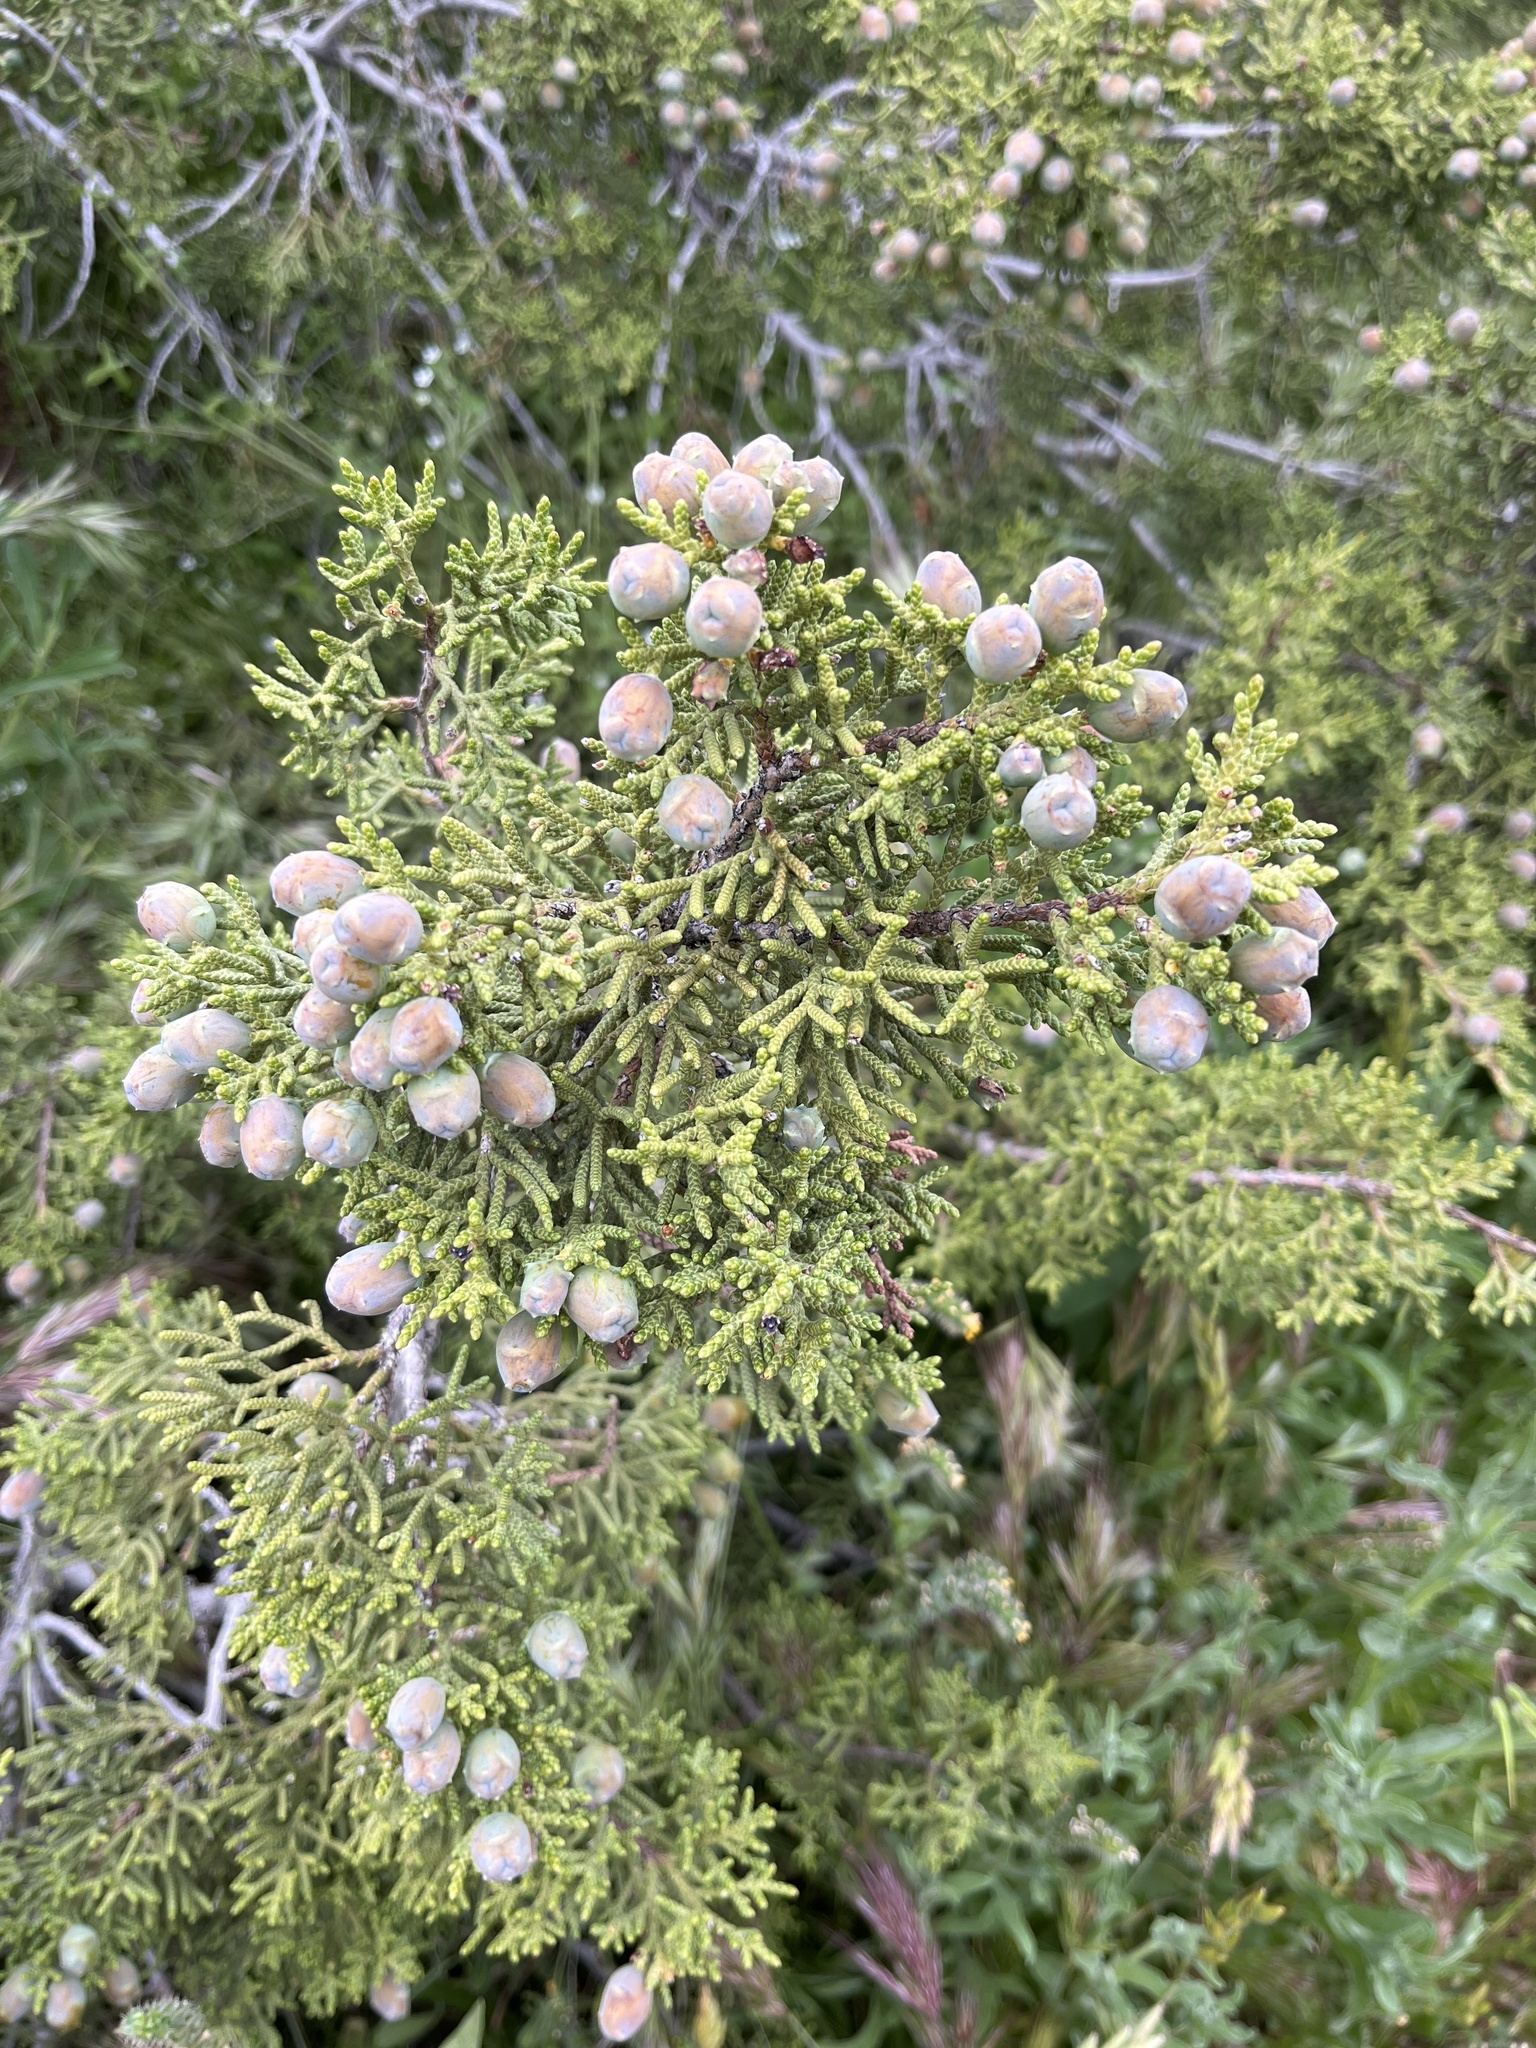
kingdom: Plantae
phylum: Tracheophyta
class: Pinopsida
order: Pinales
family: Cupressaceae
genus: Juniperus
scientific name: Juniperus californica
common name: California juniper
